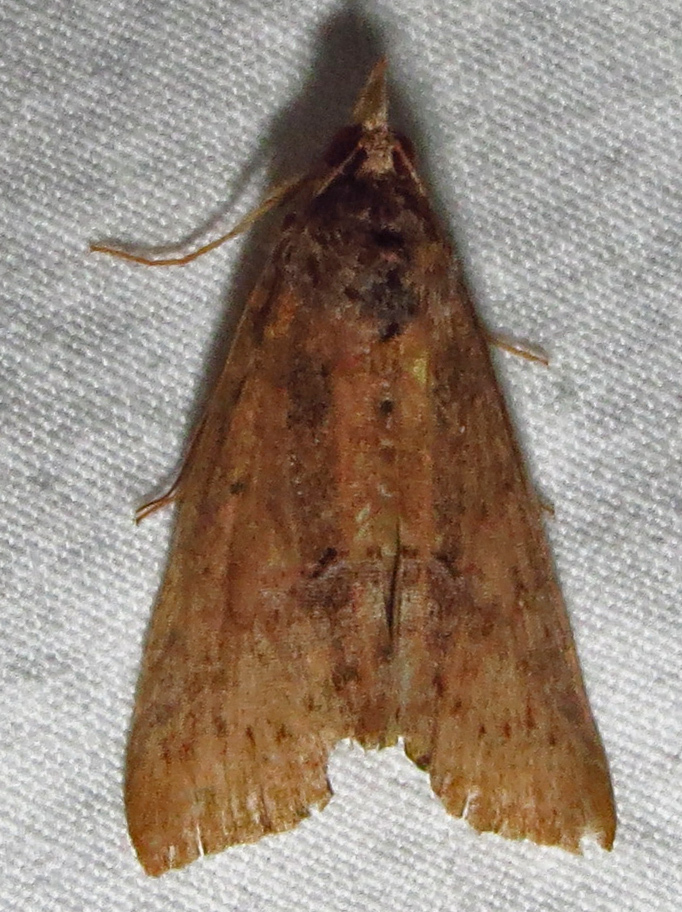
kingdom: Animalia
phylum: Arthropoda
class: Insecta
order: Lepidoptera
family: Erebidae
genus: Hypena
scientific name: Hypena scabra
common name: Green cloverworm
